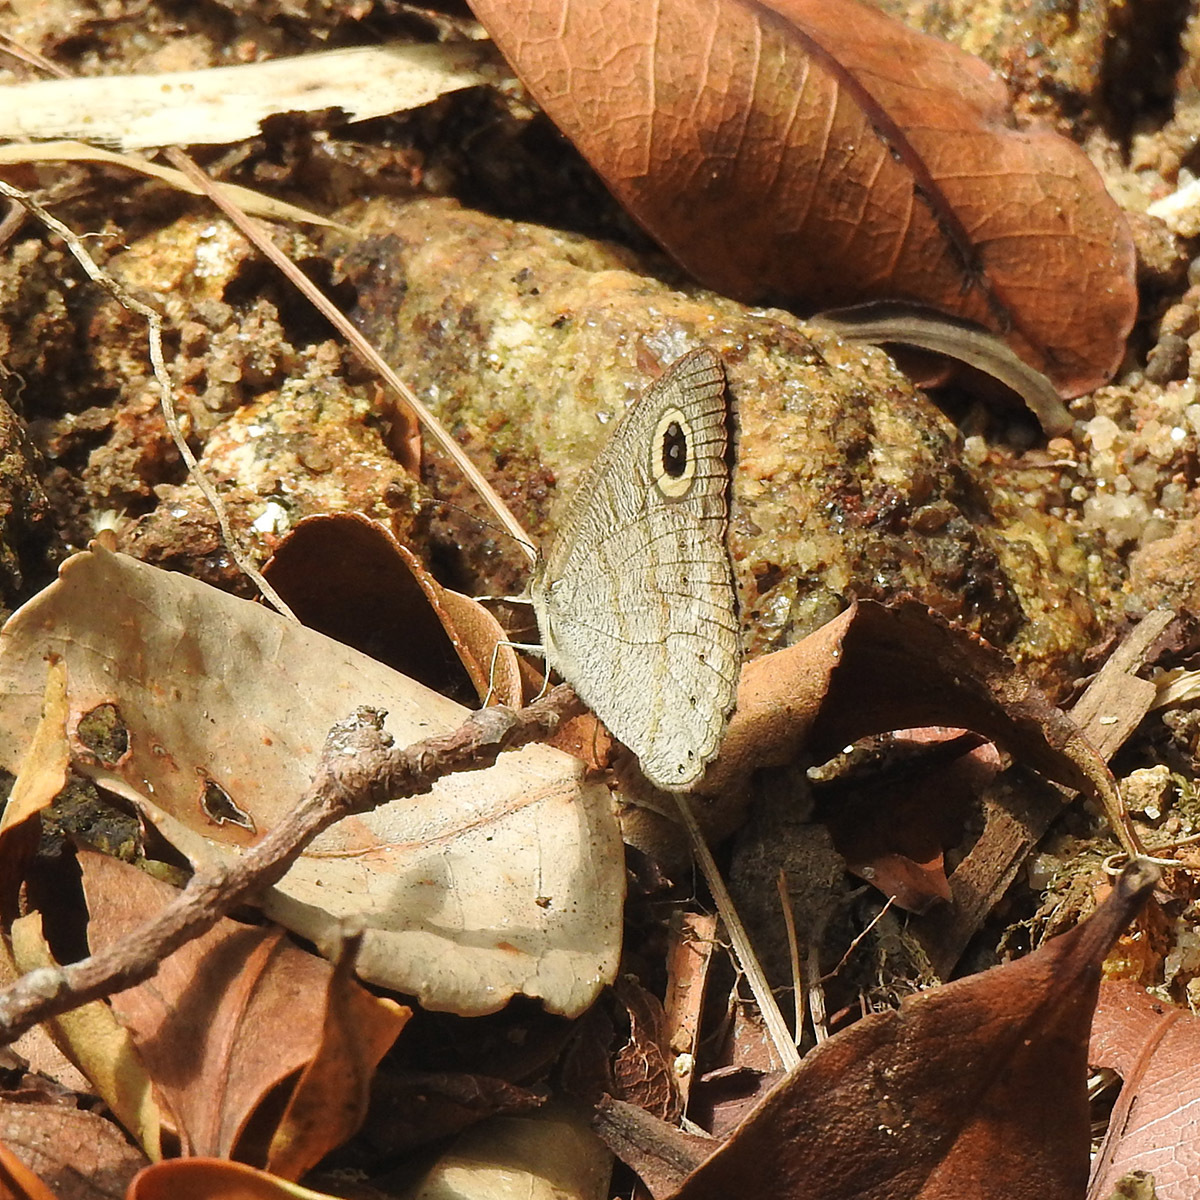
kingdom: Animalia
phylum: Arthropoda
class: Insecta
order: Lepidoptera
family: Nymphalidae
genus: Ypthima
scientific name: Ypthima baldus
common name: Common five-ring
